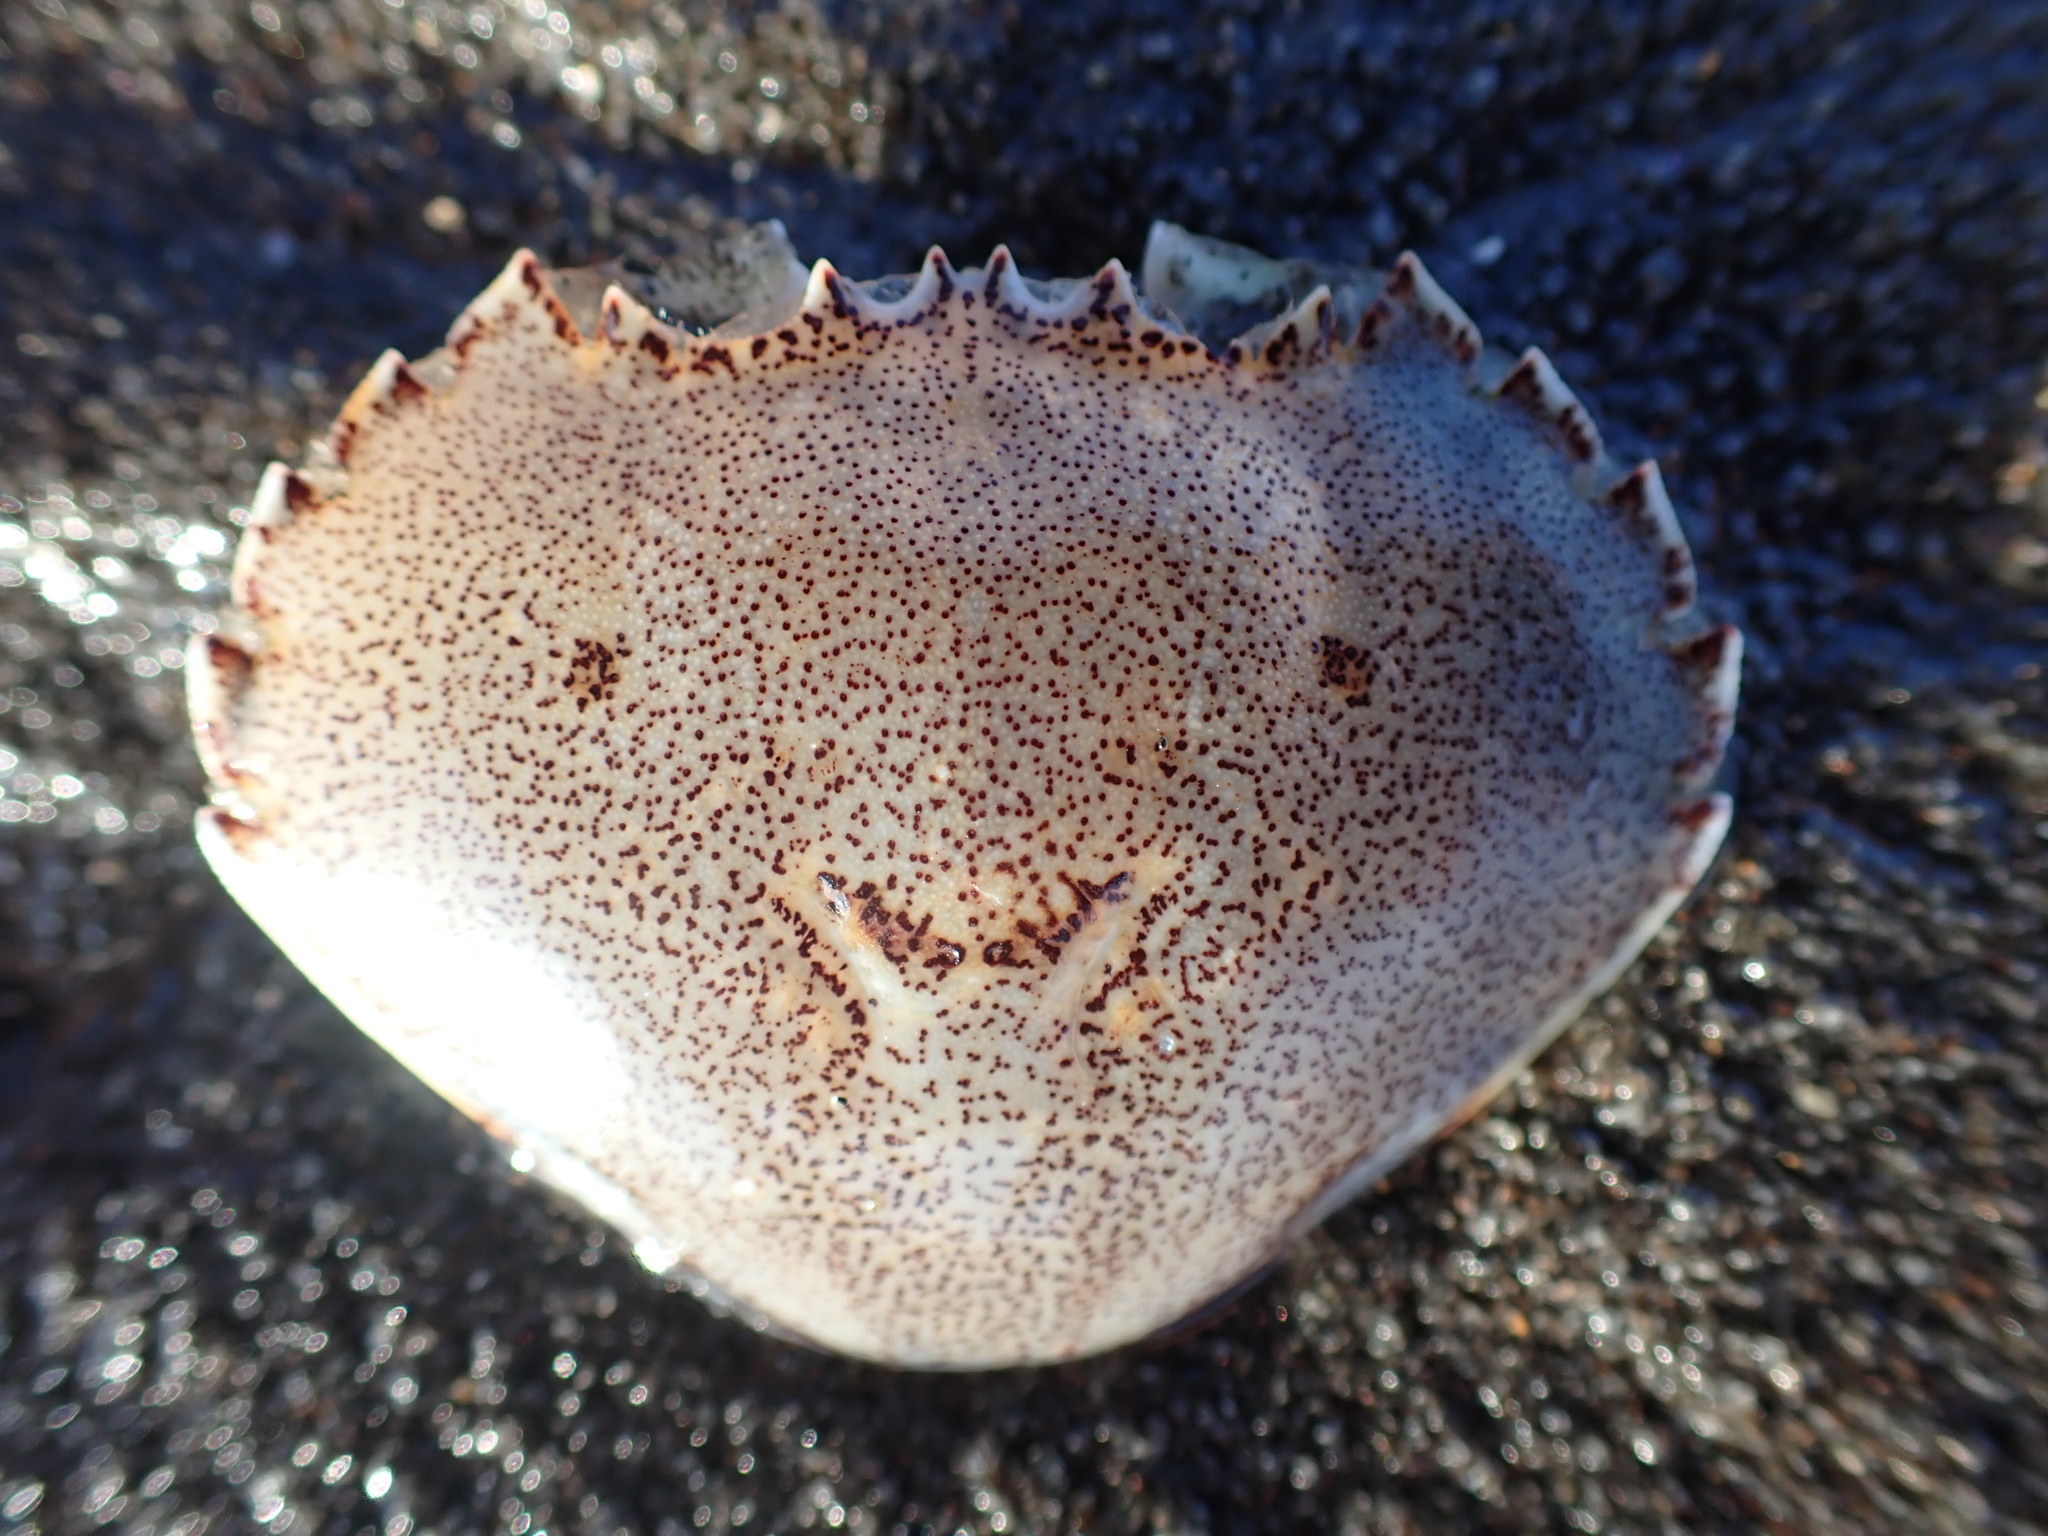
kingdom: Animalia
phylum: Arthropoda
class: Malacostraca
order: Decapoda
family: Ovalipidae
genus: Ovalipes
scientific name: Ovalipes catharus
